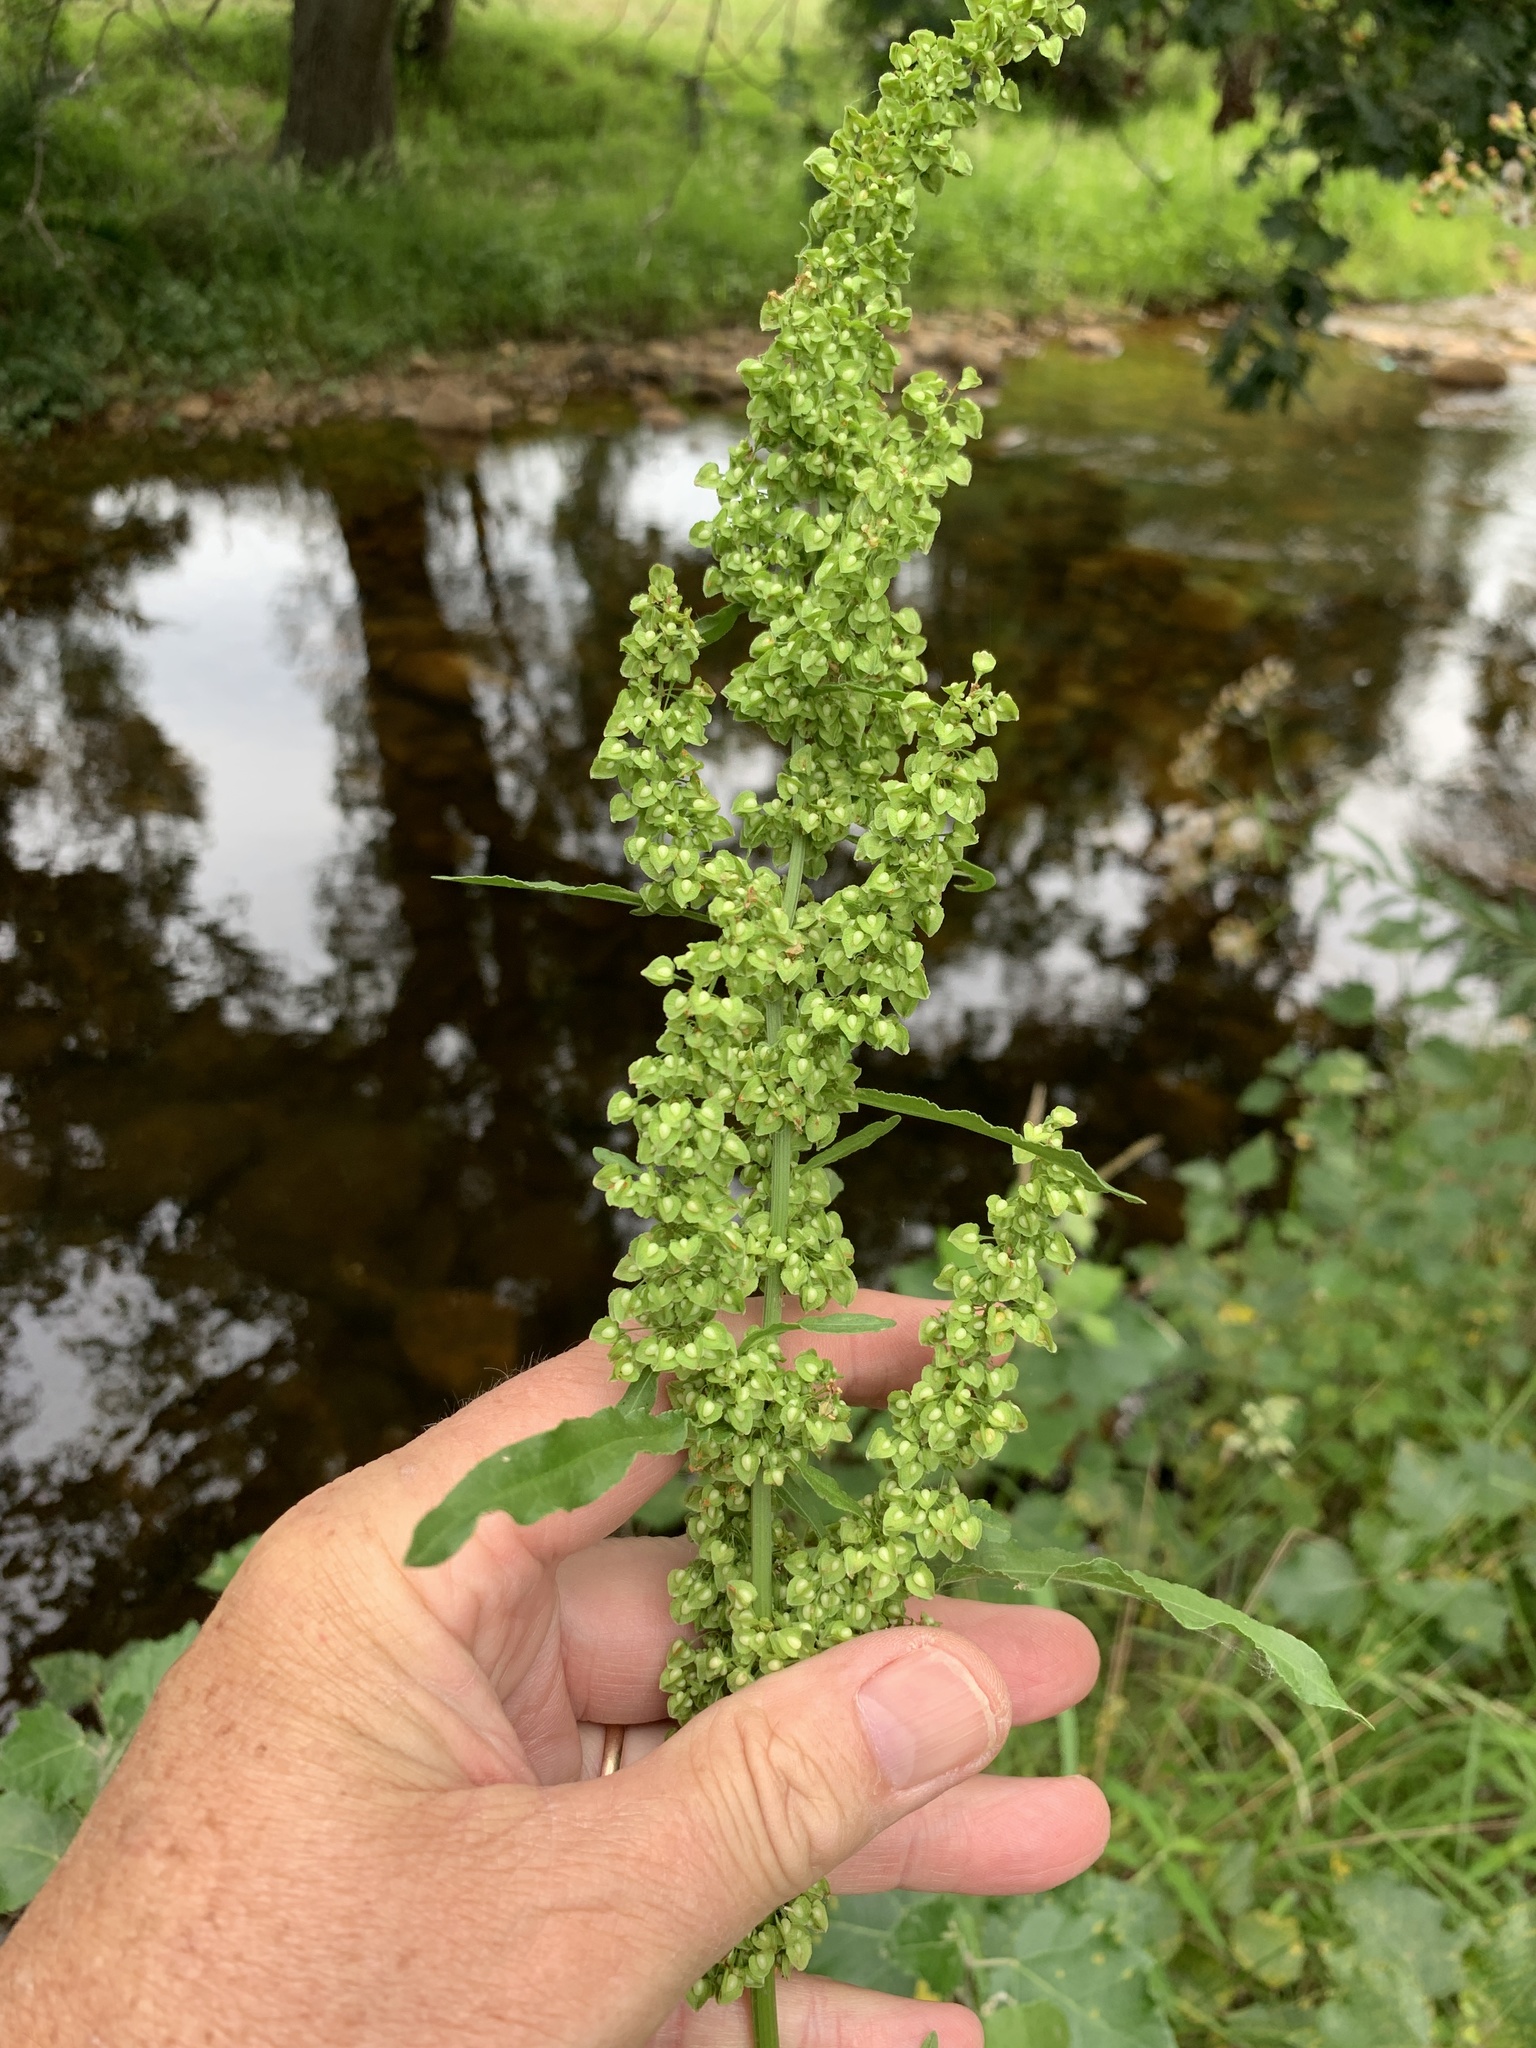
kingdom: Plantae
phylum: Tracheophyta
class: Magnoliopsida
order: Caryophyllales
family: Polygonaceae
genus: Rumex
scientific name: Rumex crispus
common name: Curled dock
